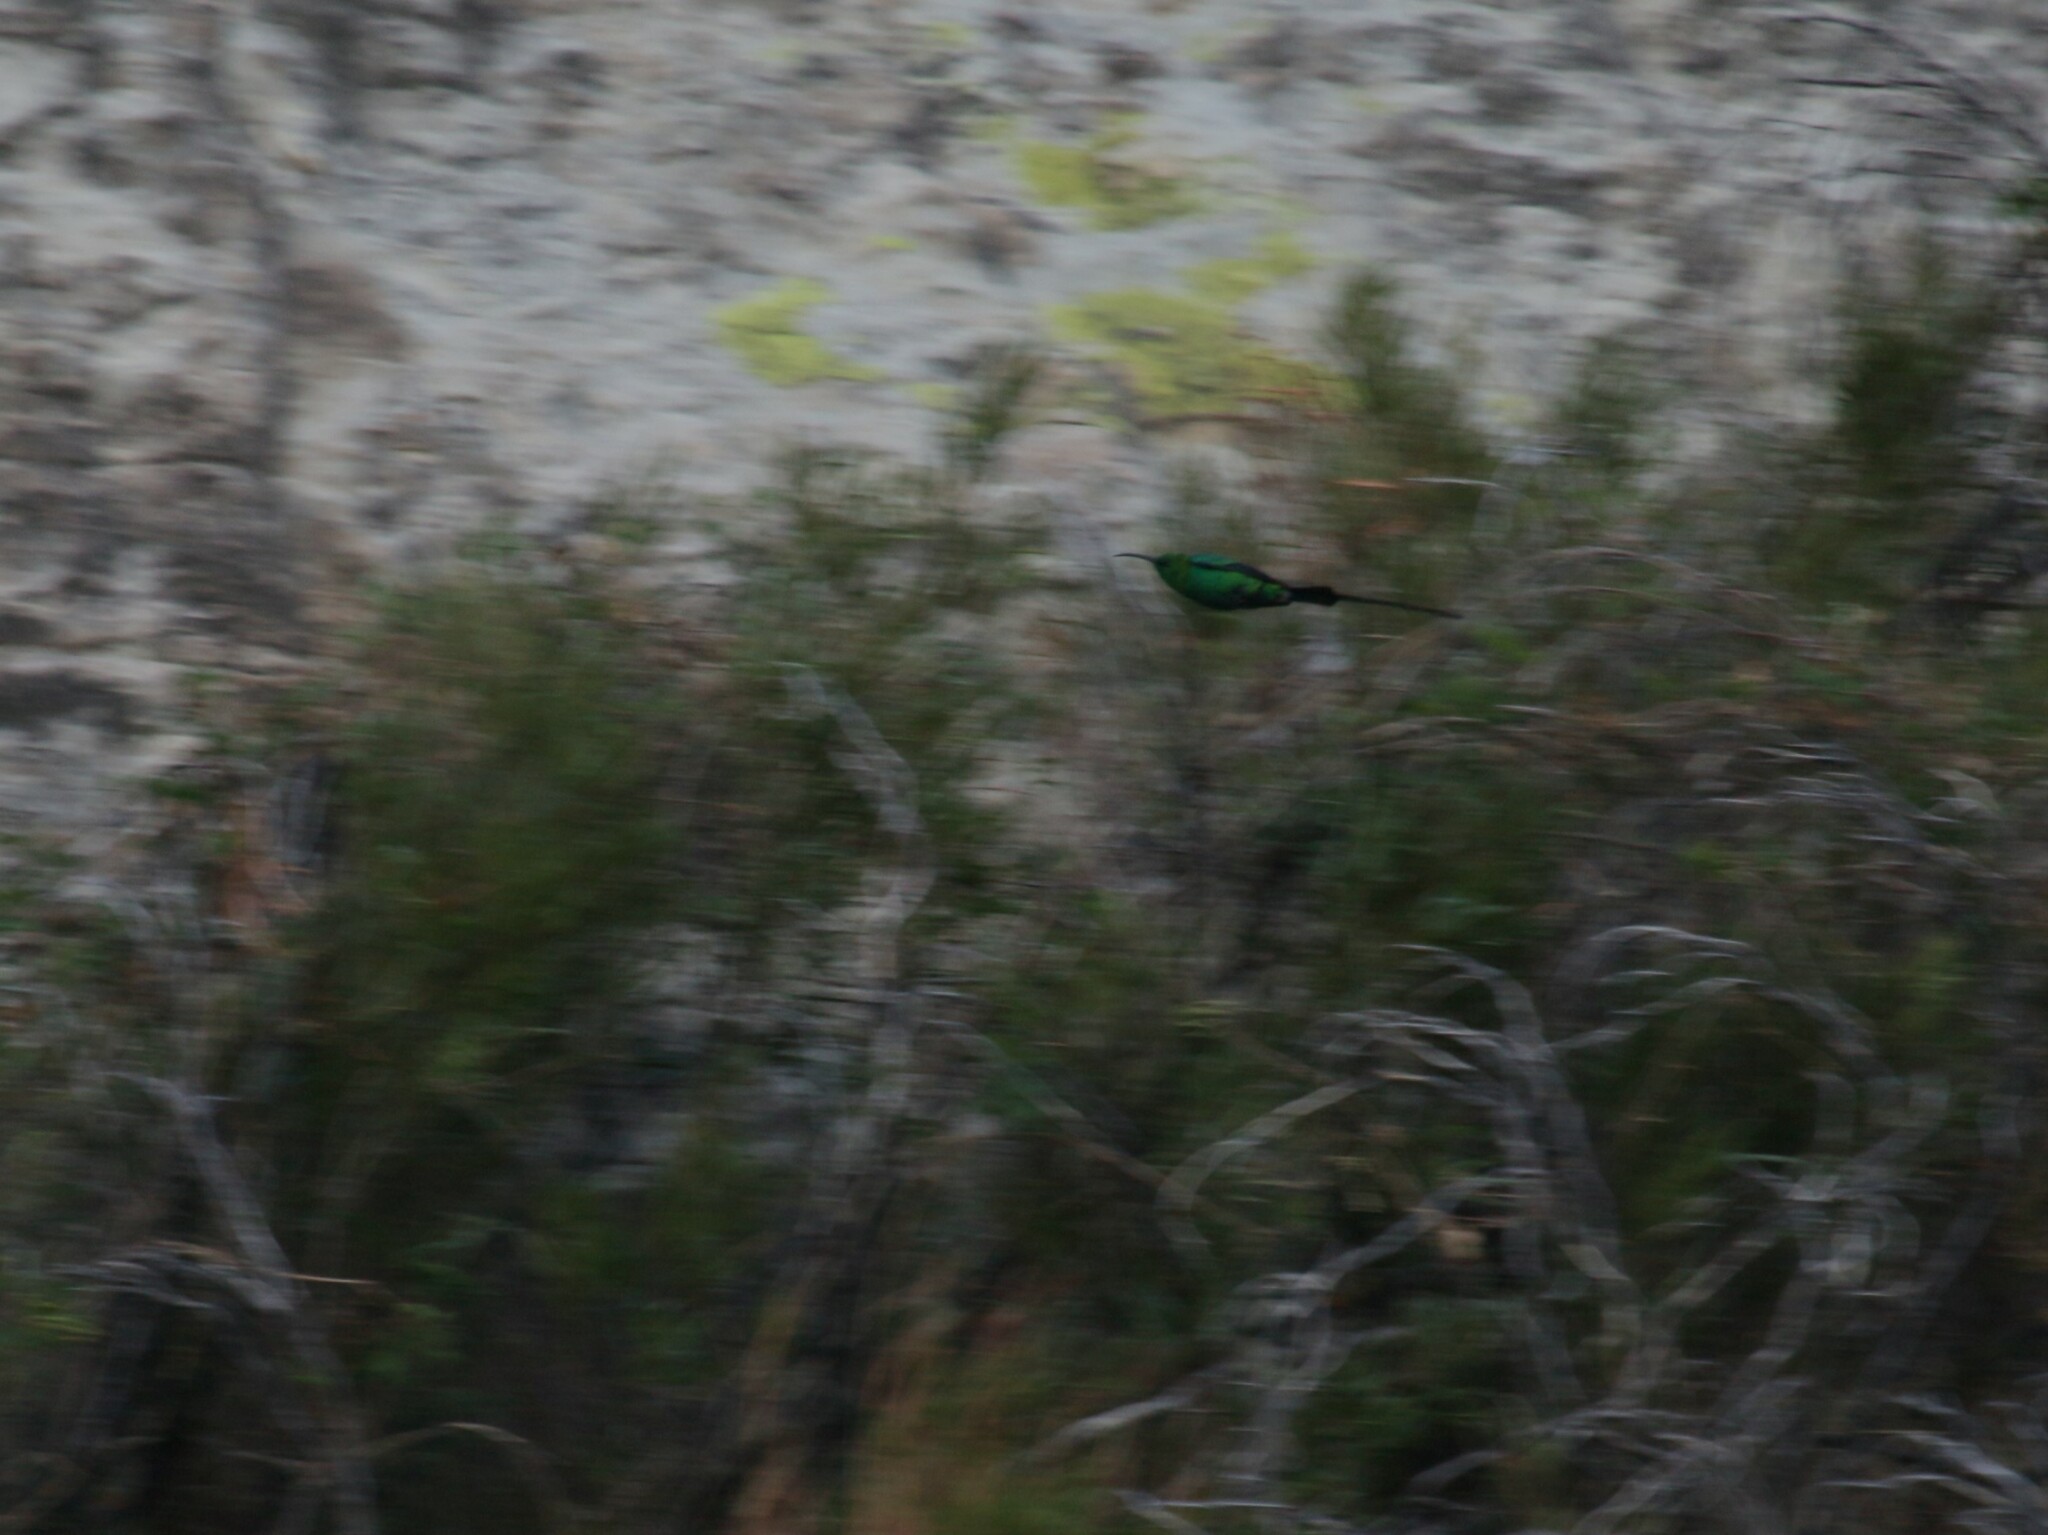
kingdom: Animalia
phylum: Chordata
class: Aves
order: Passeriformes
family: Nectariniidae
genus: Nectarinia
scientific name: Nectarinia famosa
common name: Malachite sunbird
